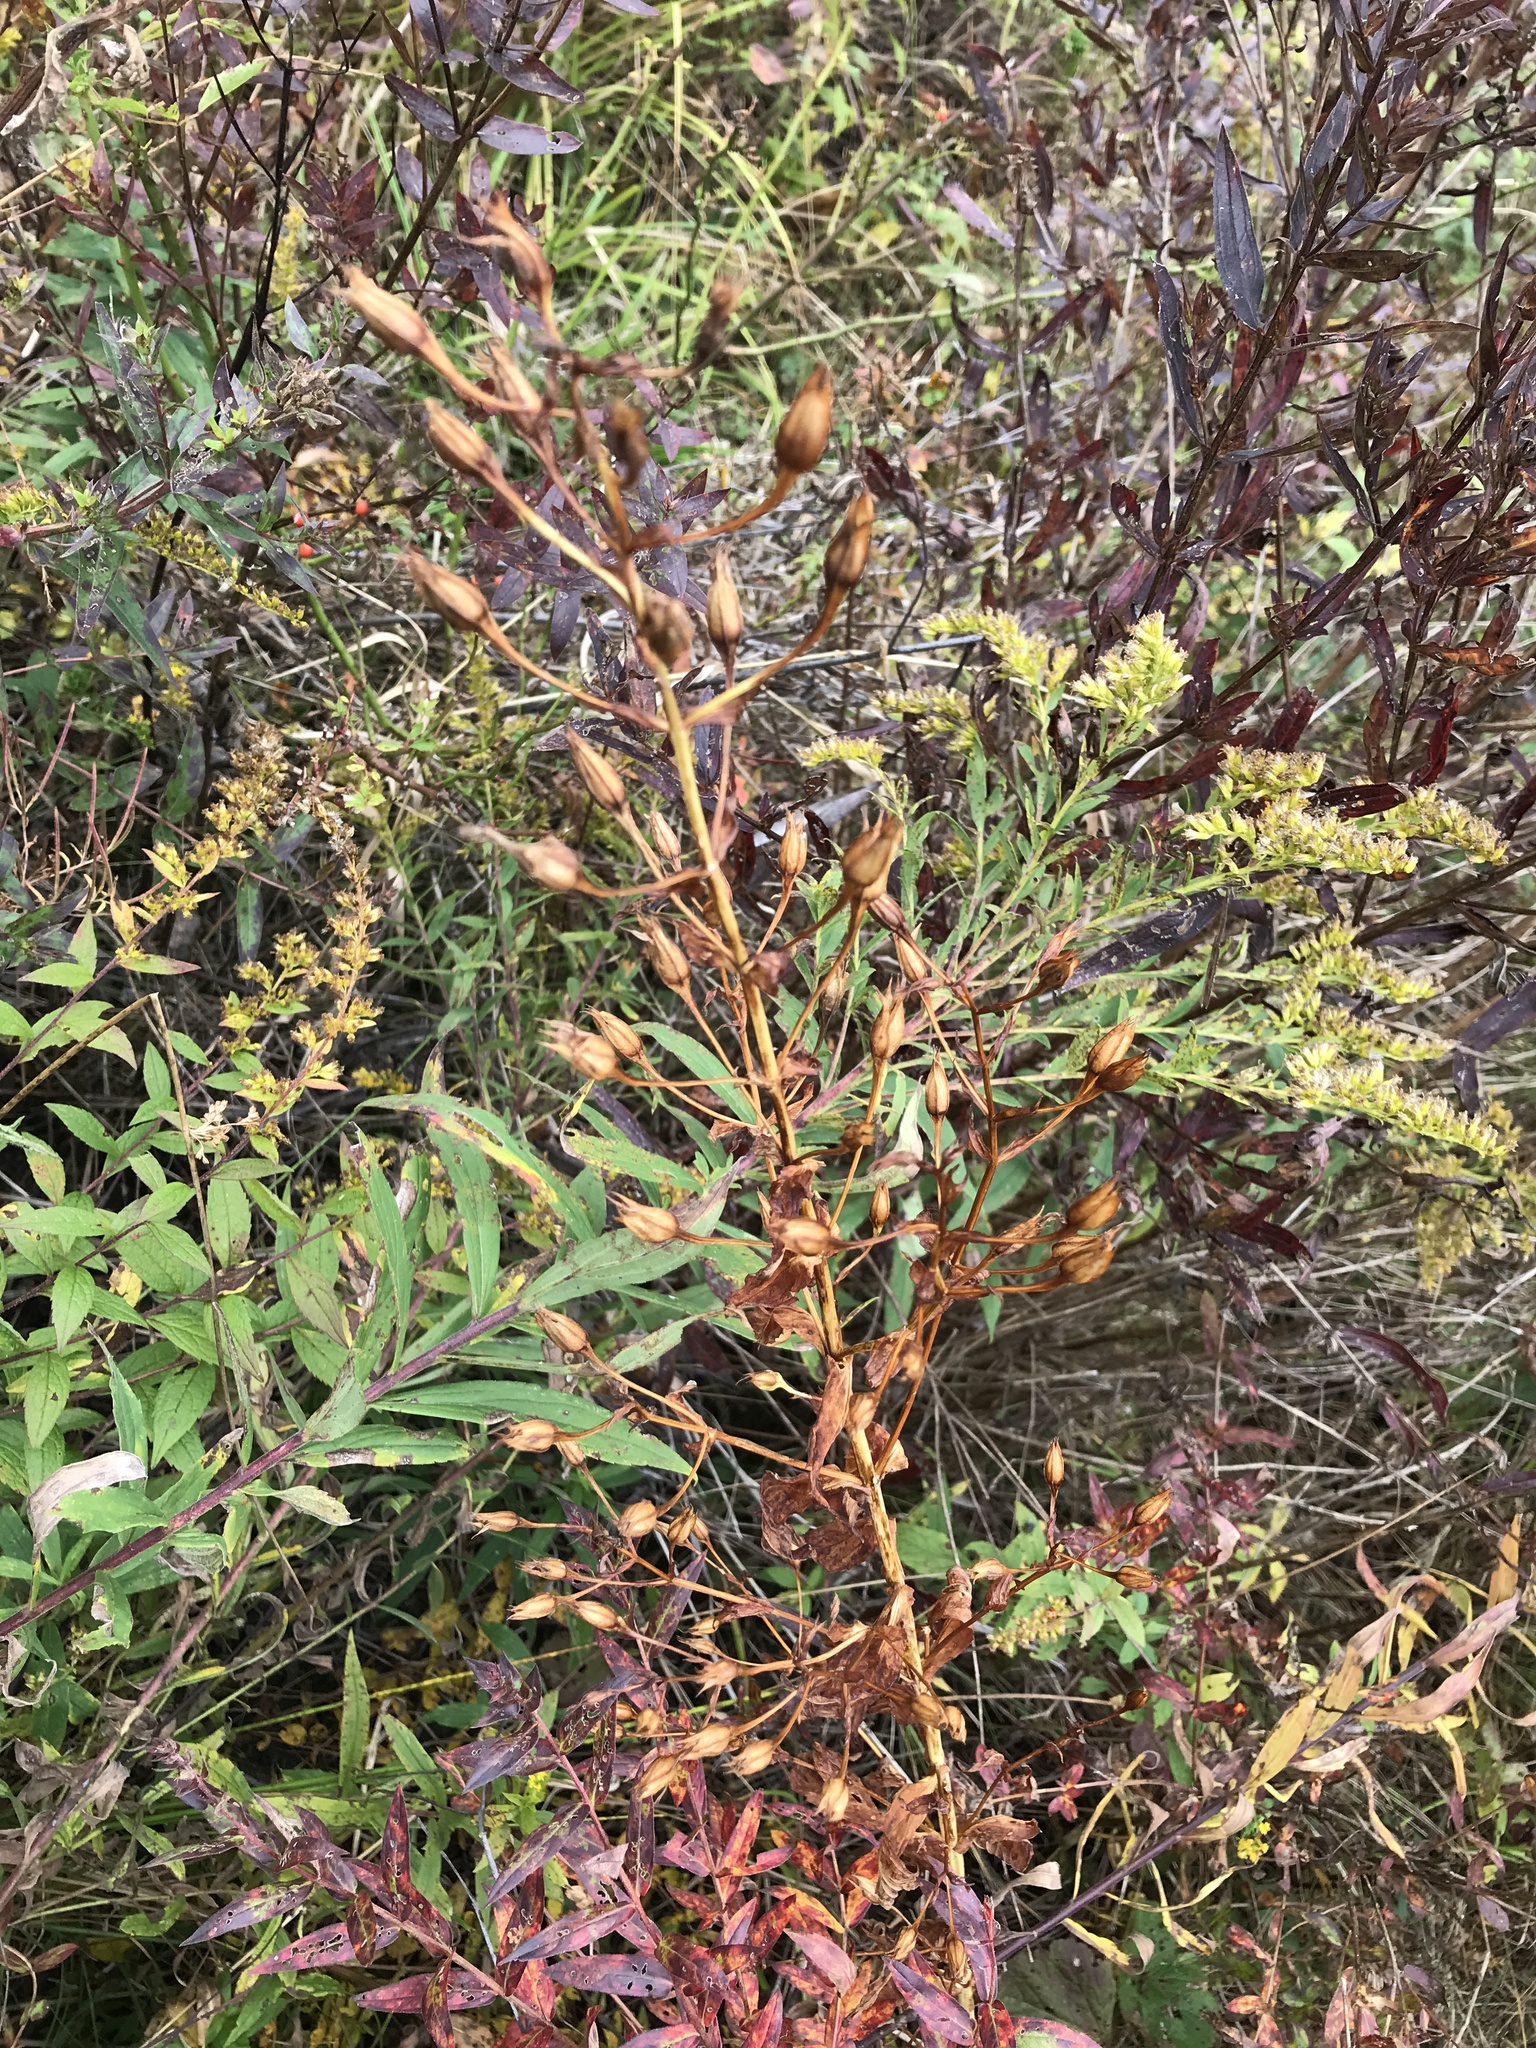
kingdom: Plantae
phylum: Tracheophyta
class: Magnoliopsida
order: Lamiales
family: Phrymaceae
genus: Mimulus
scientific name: Mimulus ringens
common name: Allegheny monkeyflower
